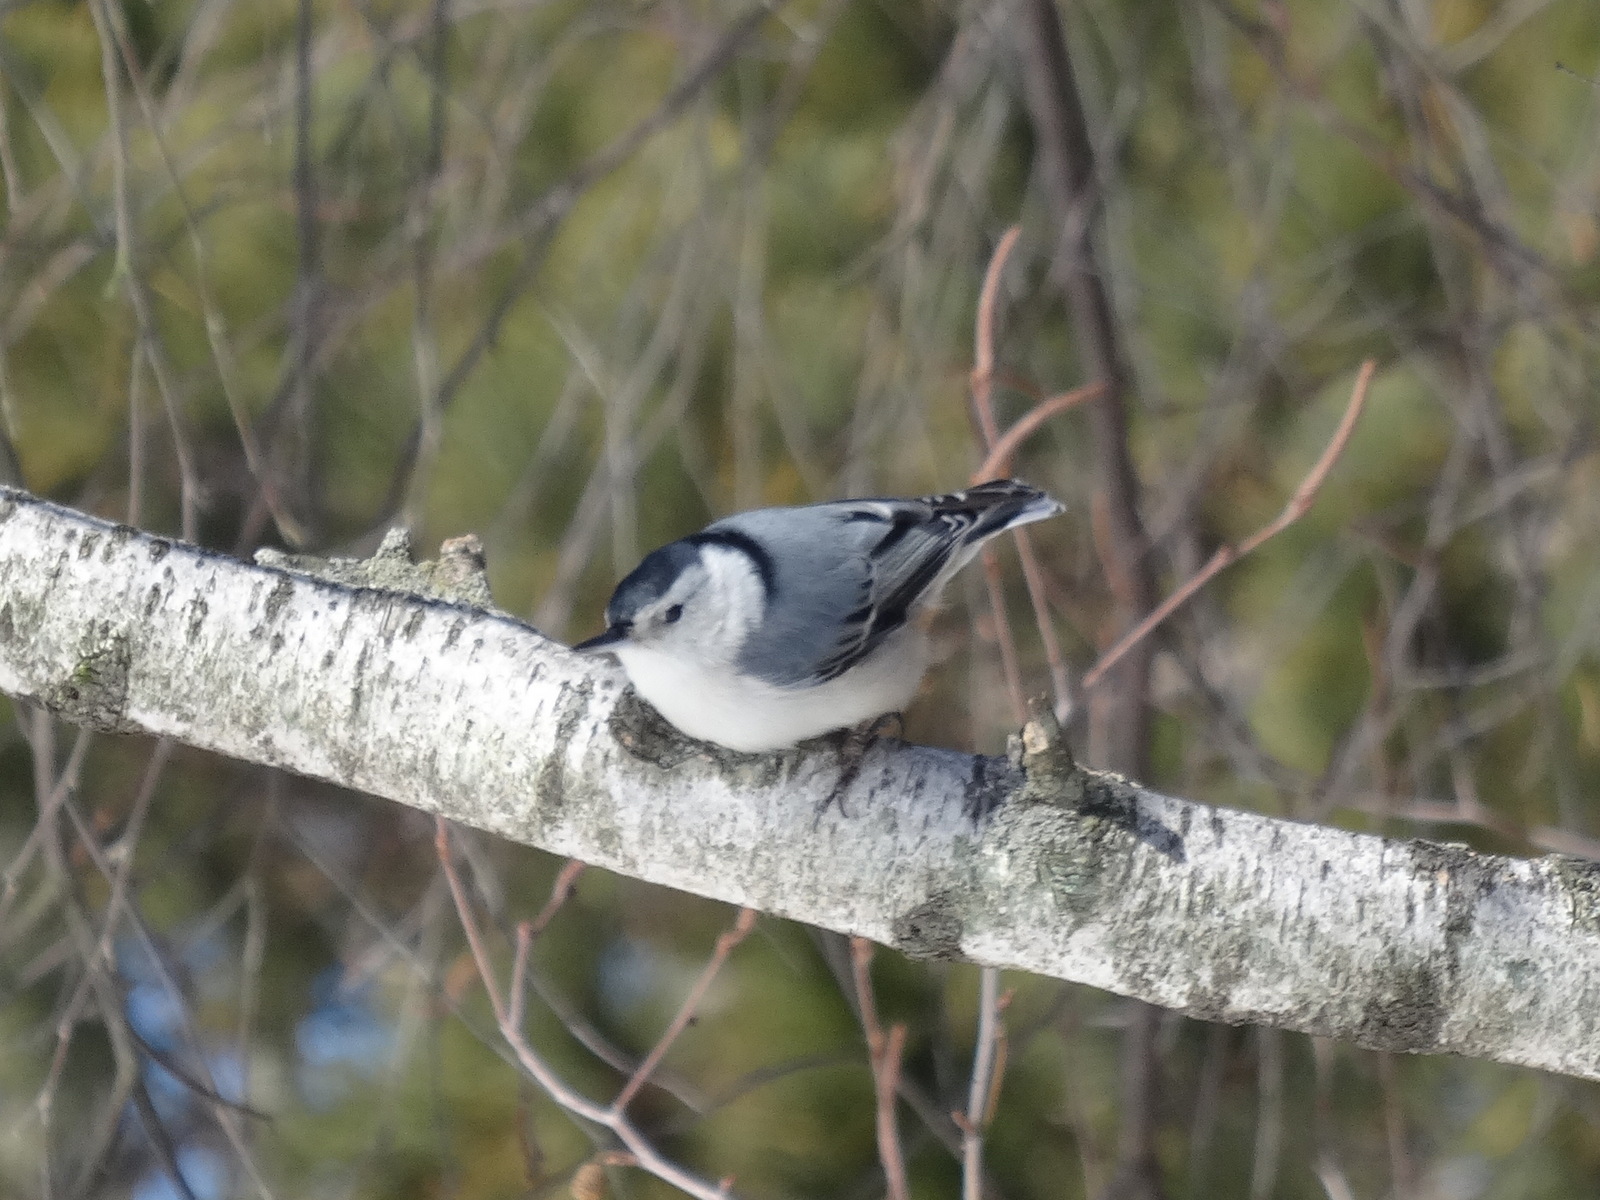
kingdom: Animalia
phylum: Chordata
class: Aves
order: Passeriformes
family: Sittidae
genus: Sitta
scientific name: Sitta carolinensis
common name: White-breasted nuthatch
